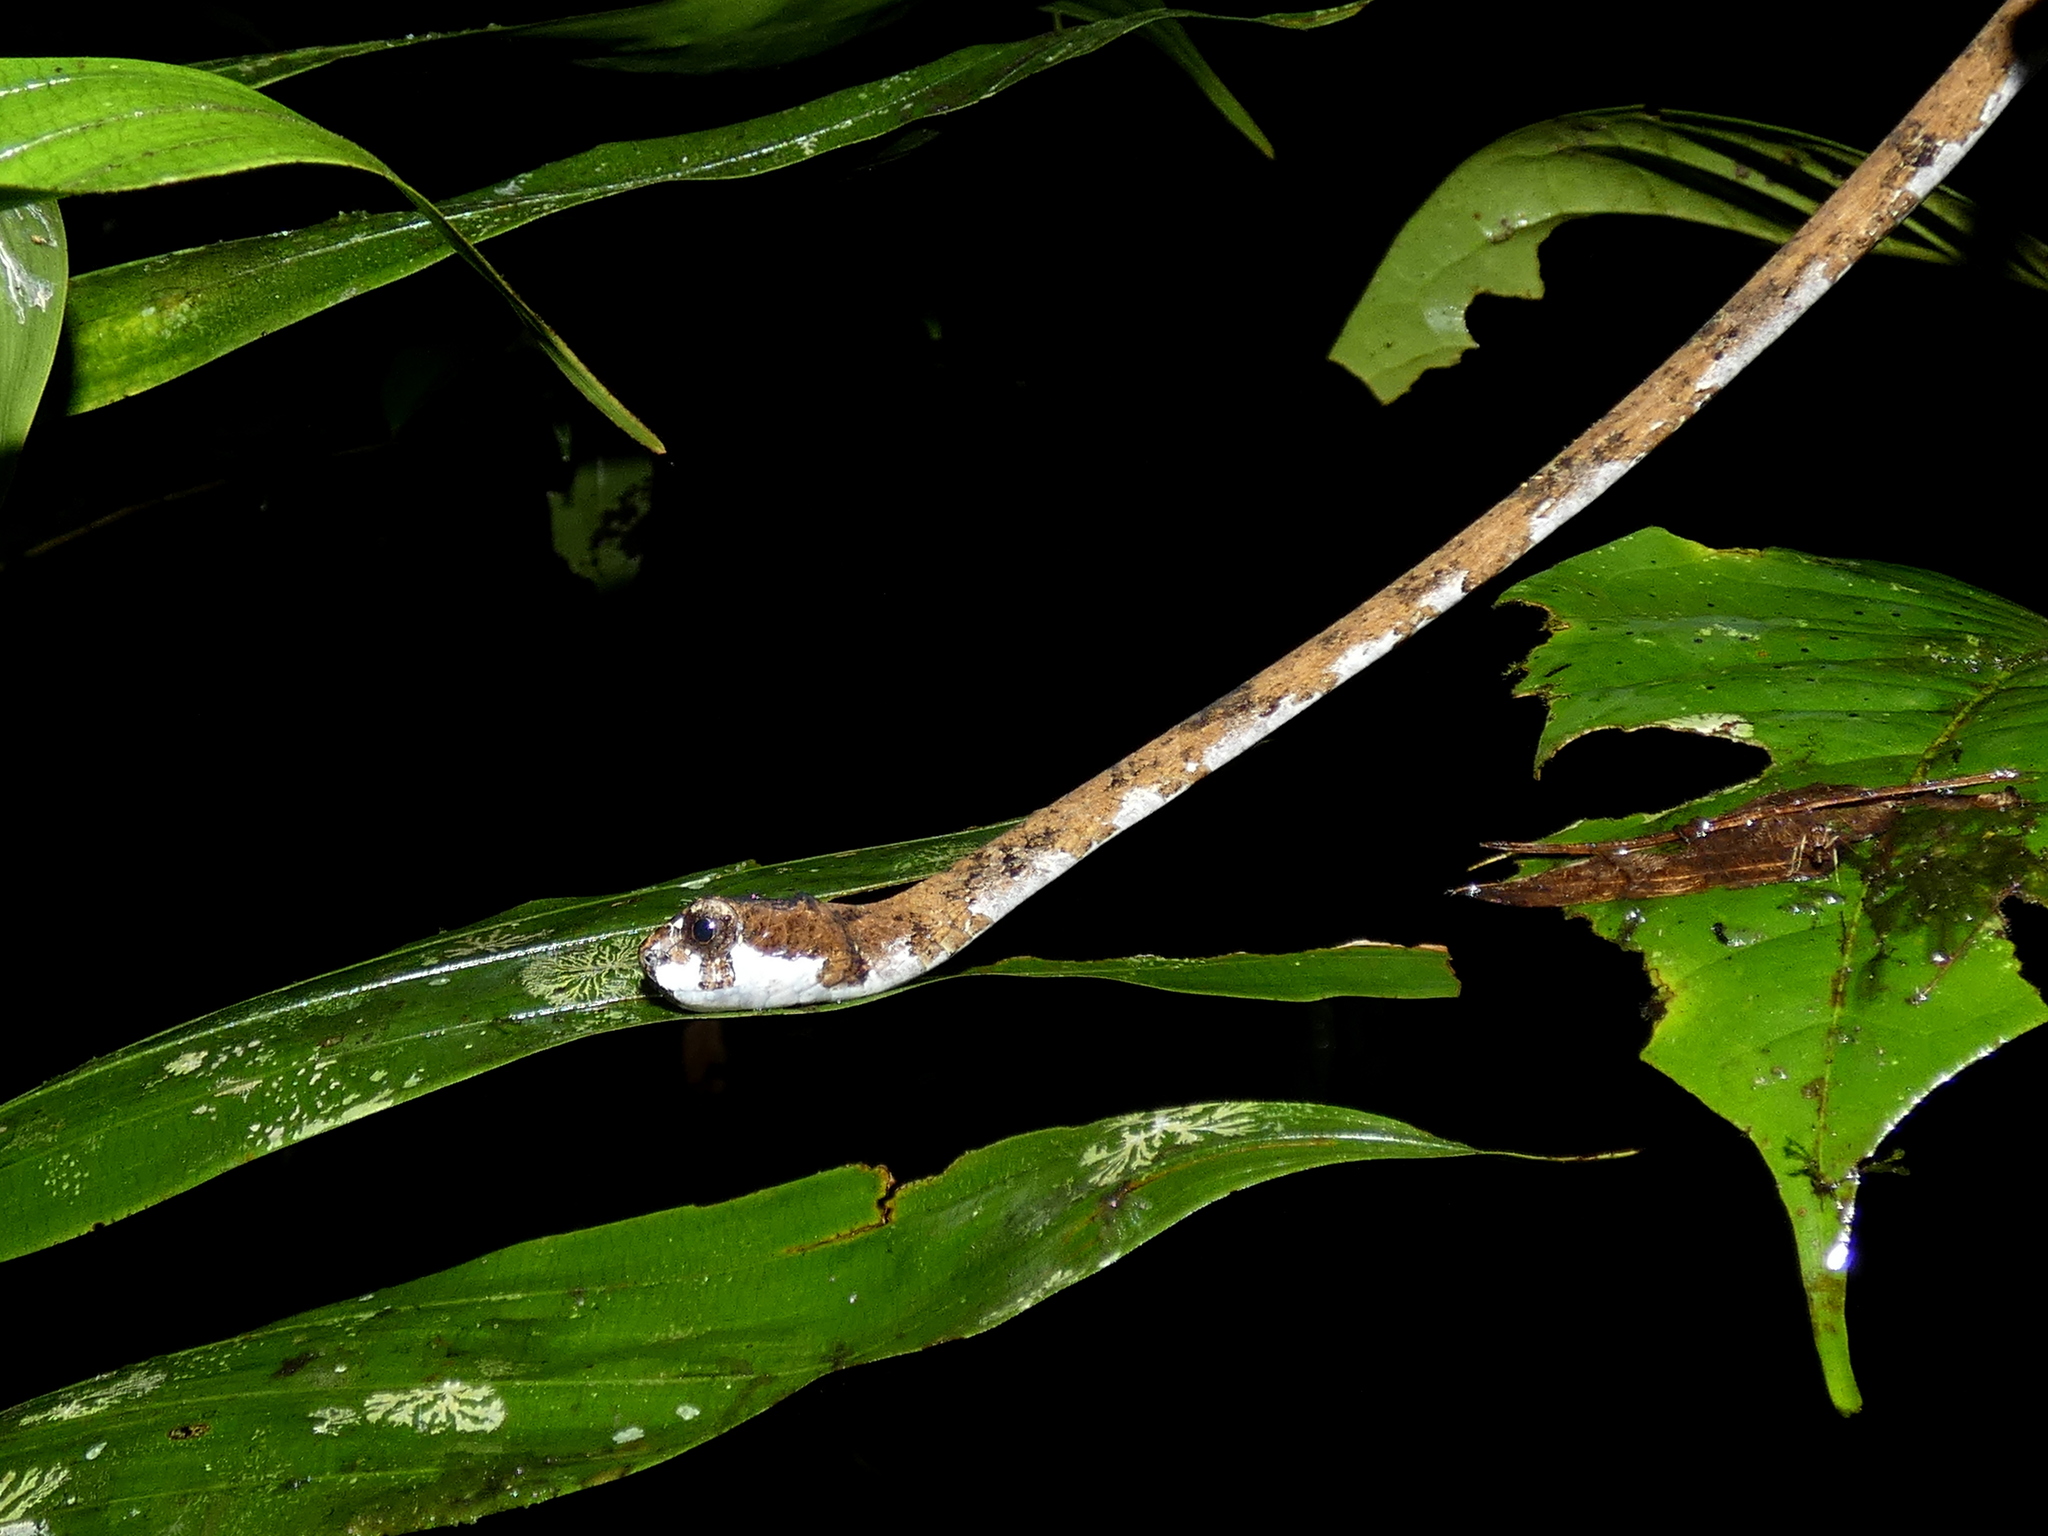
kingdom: Animalia
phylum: Chordata
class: Squamata
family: Pareidae
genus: Aplopeltura
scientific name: Aplopeltura boa
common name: Blunthead slug snake
